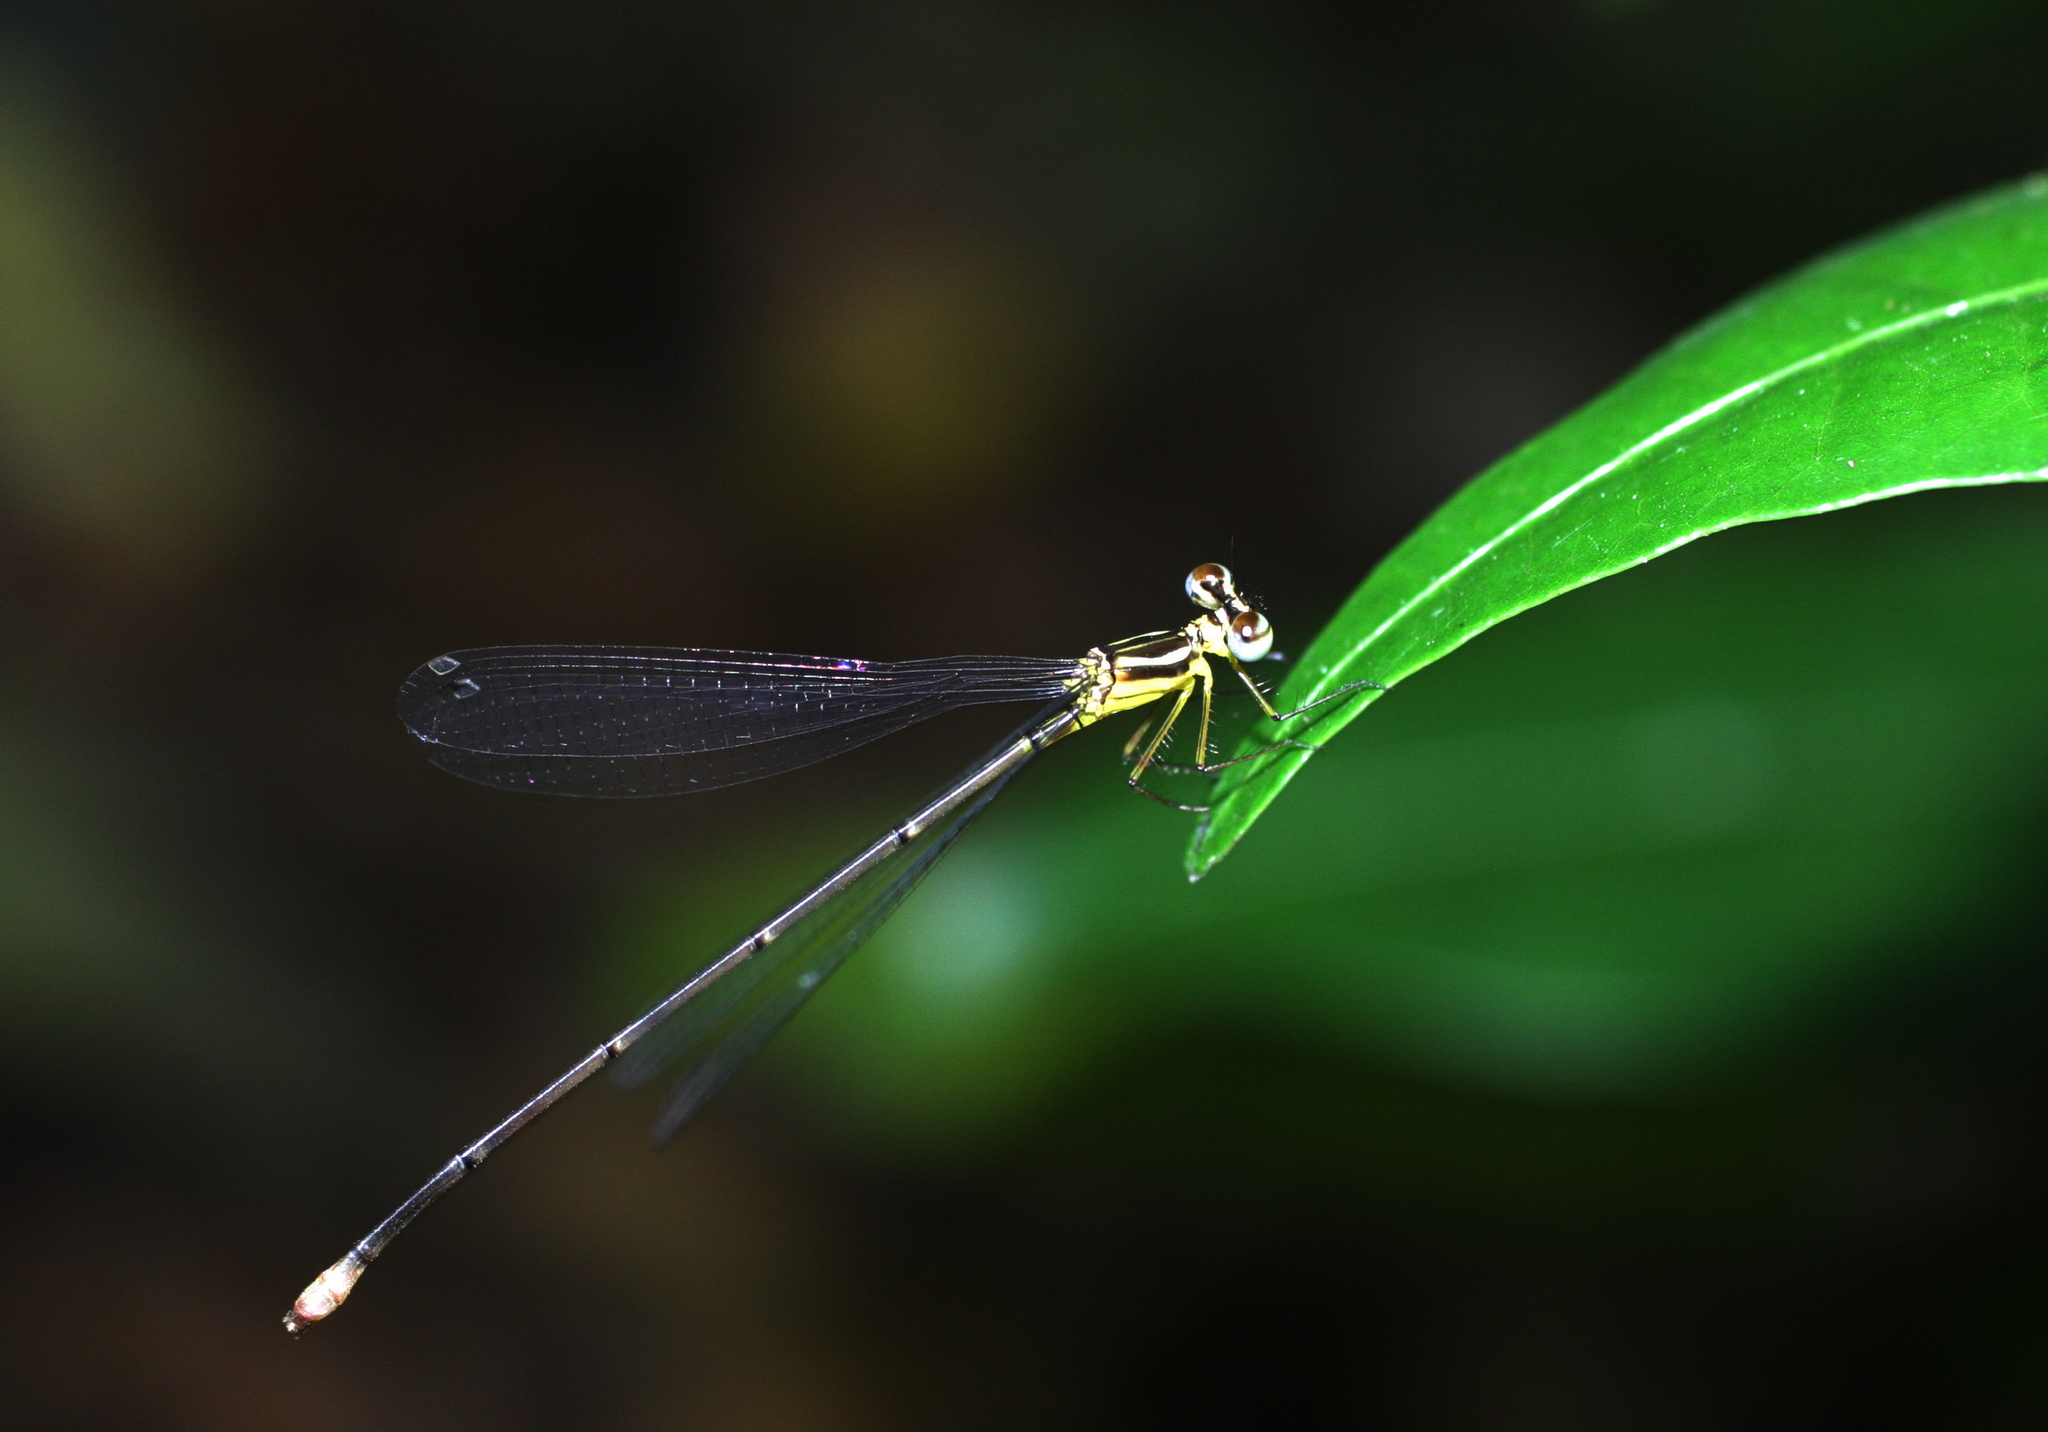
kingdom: Animalia
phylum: Arthropoda
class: Insecta
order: Odonata
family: Platycnemididae
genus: Coeliccia
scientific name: Coeliccia albicauda
